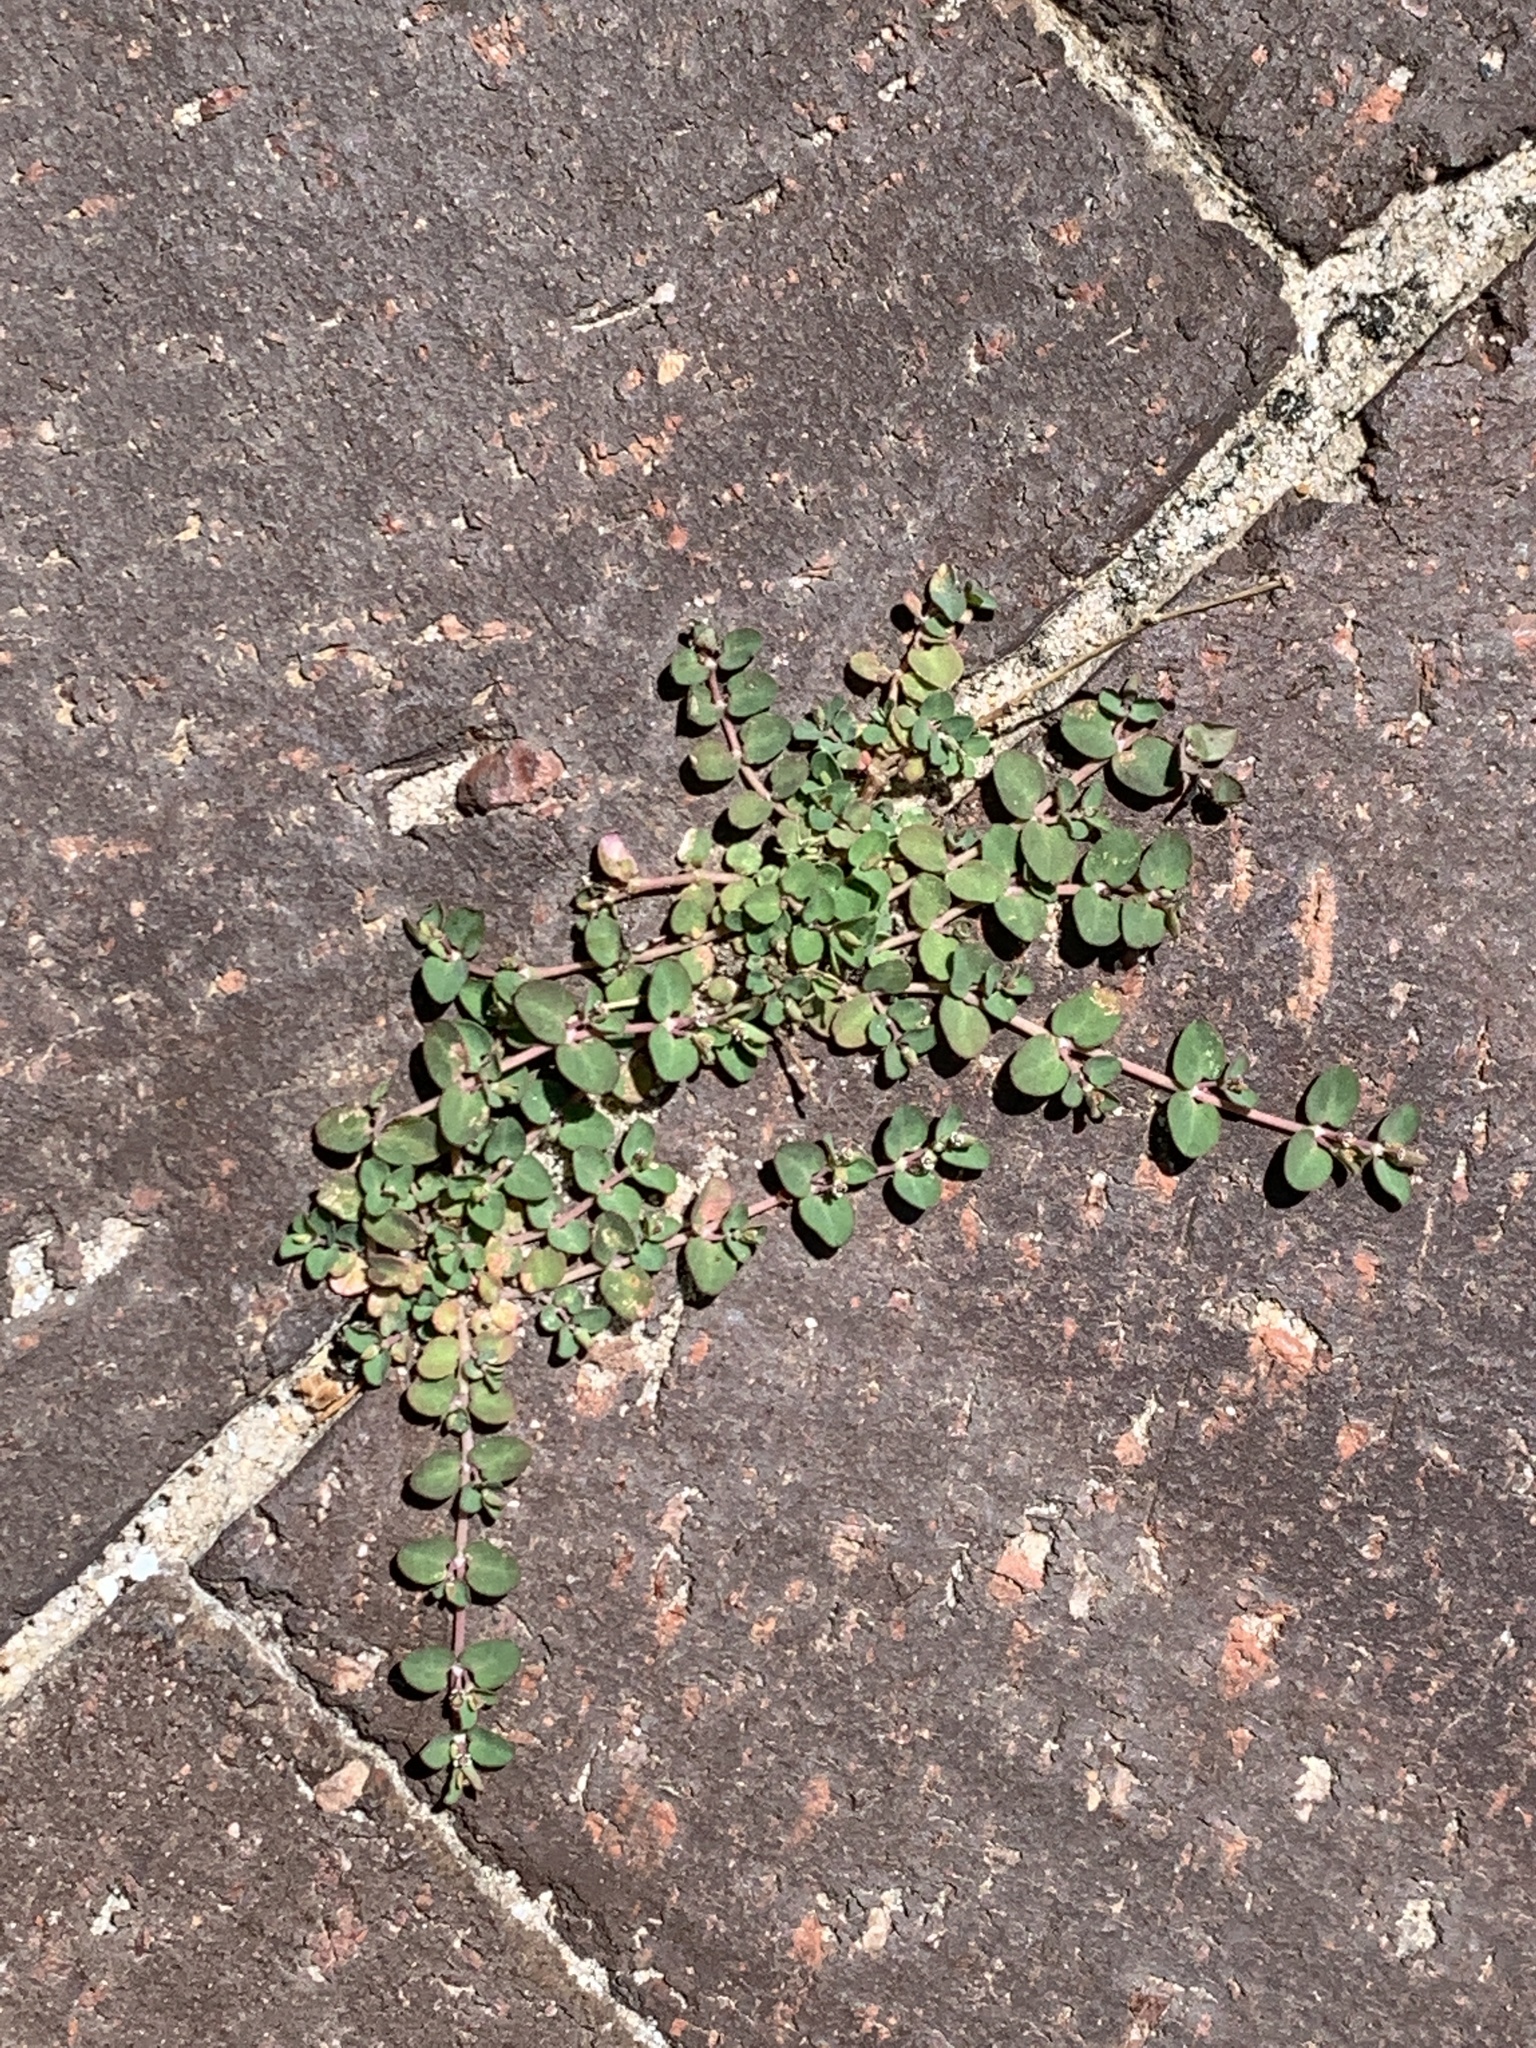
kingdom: Plantae
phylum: Tracheophyta
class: Magnoliopsida
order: Malpighiales
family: Euphorbiaceae
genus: Euphorbia
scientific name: Euphorbia serpens
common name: Matted sandmat
